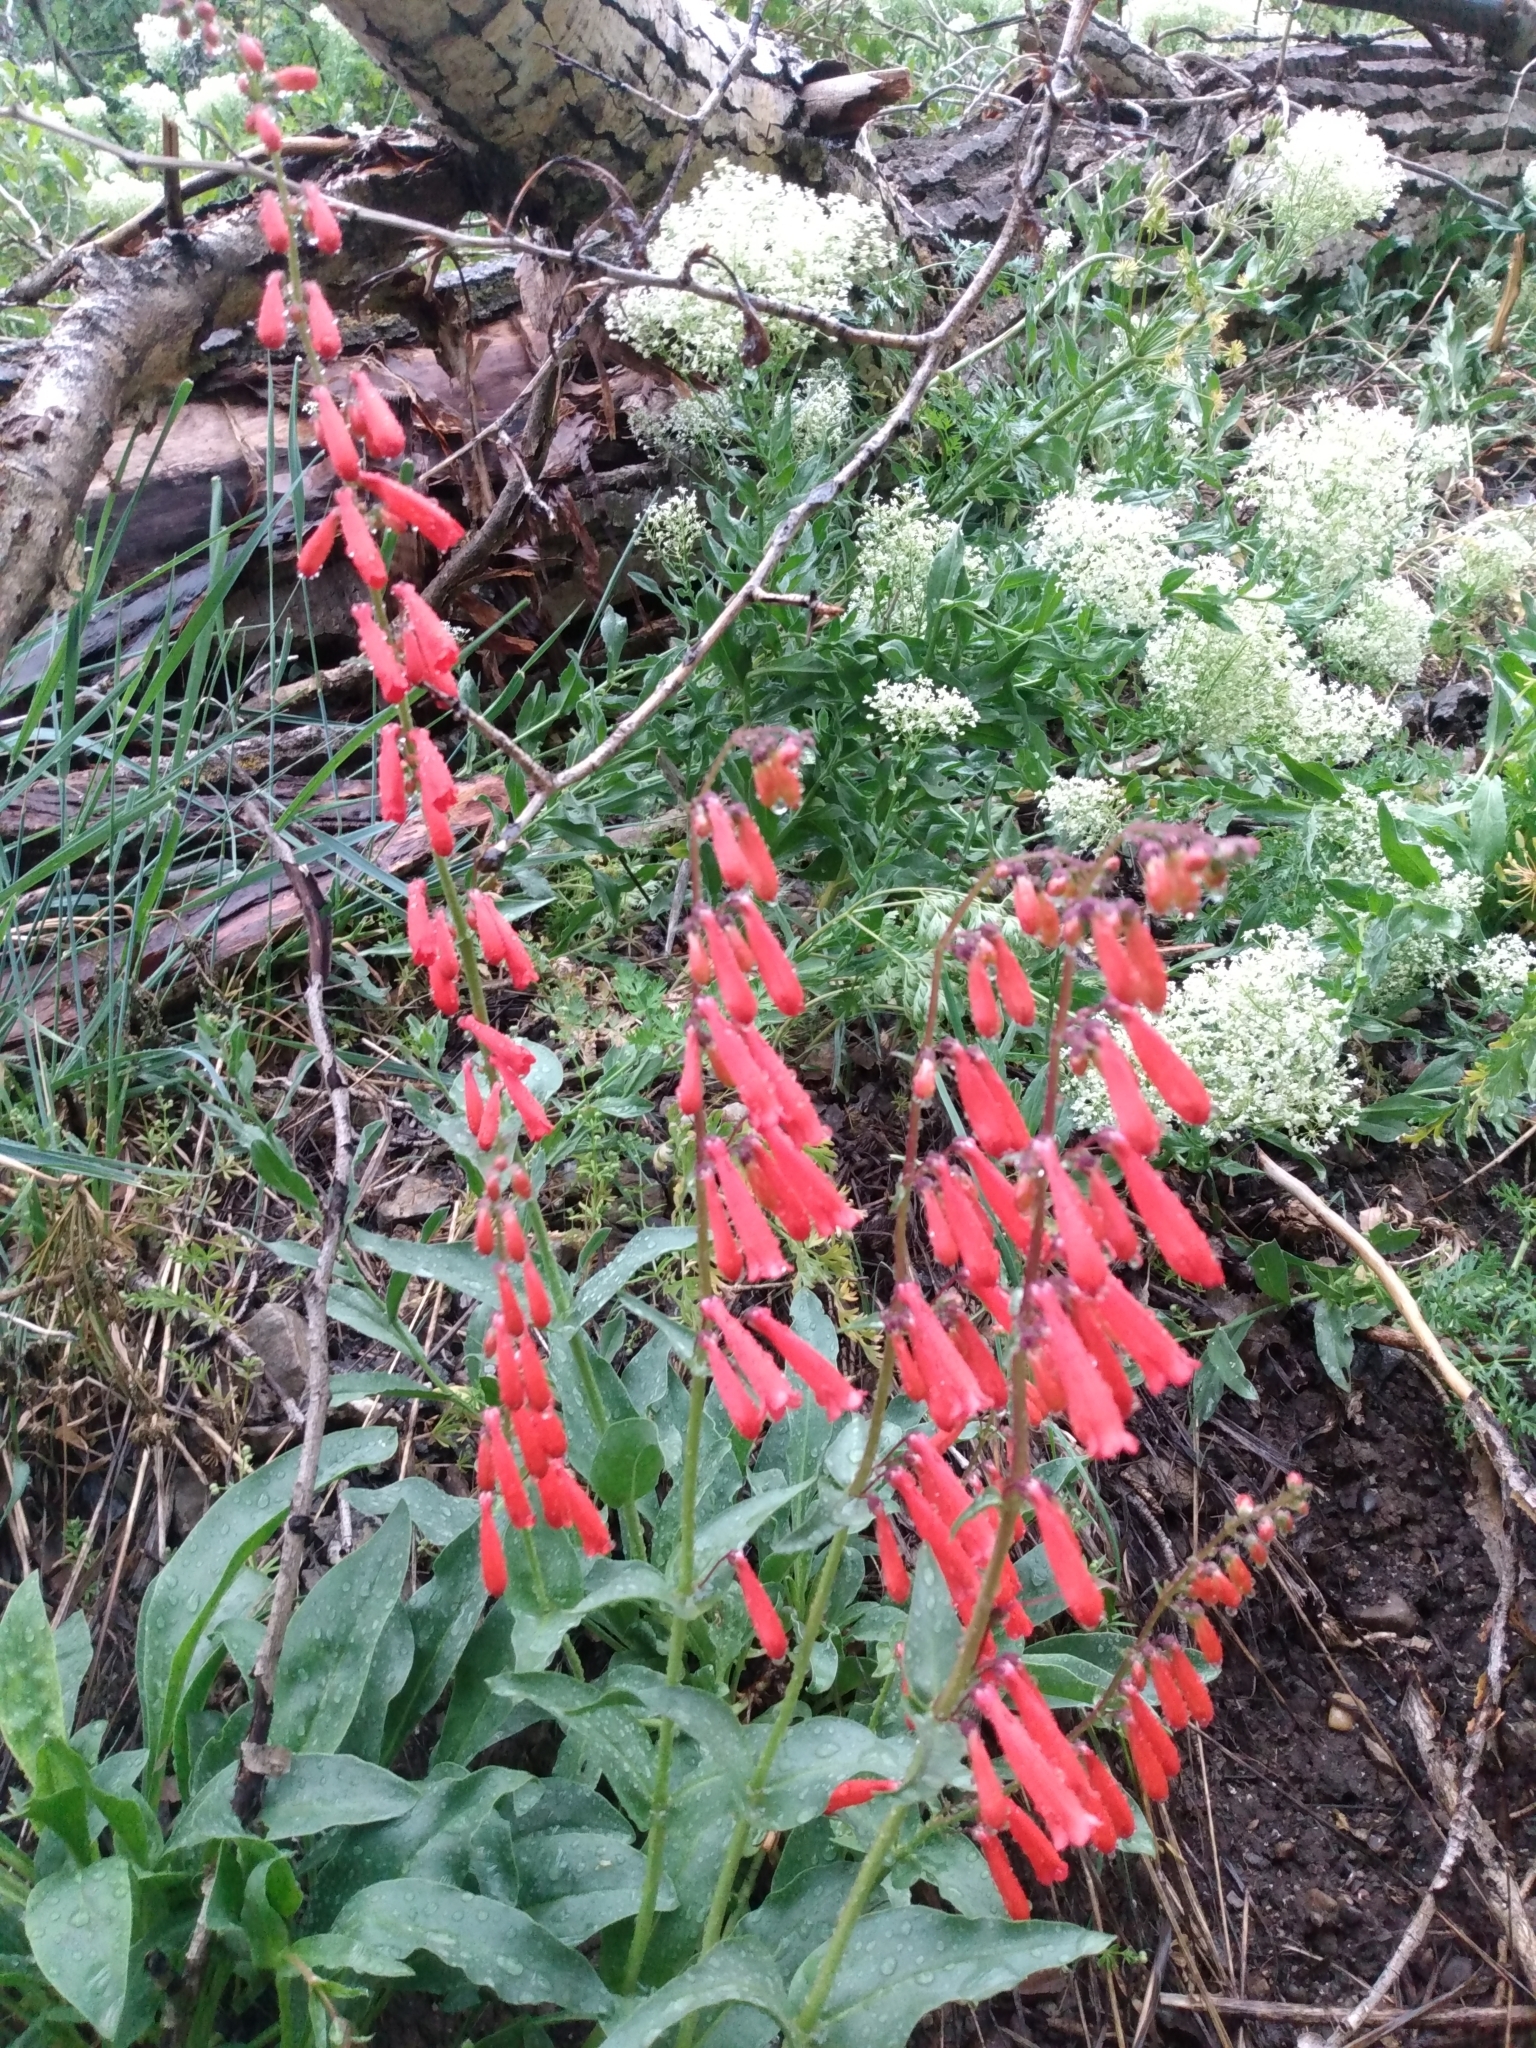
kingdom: Plantae
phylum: Tracheophyta
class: Magnoliopsida
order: Lamiales
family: Plantaginaceae
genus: Penstemon
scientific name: Penstemon eatonii
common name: Eaton's penstemon
